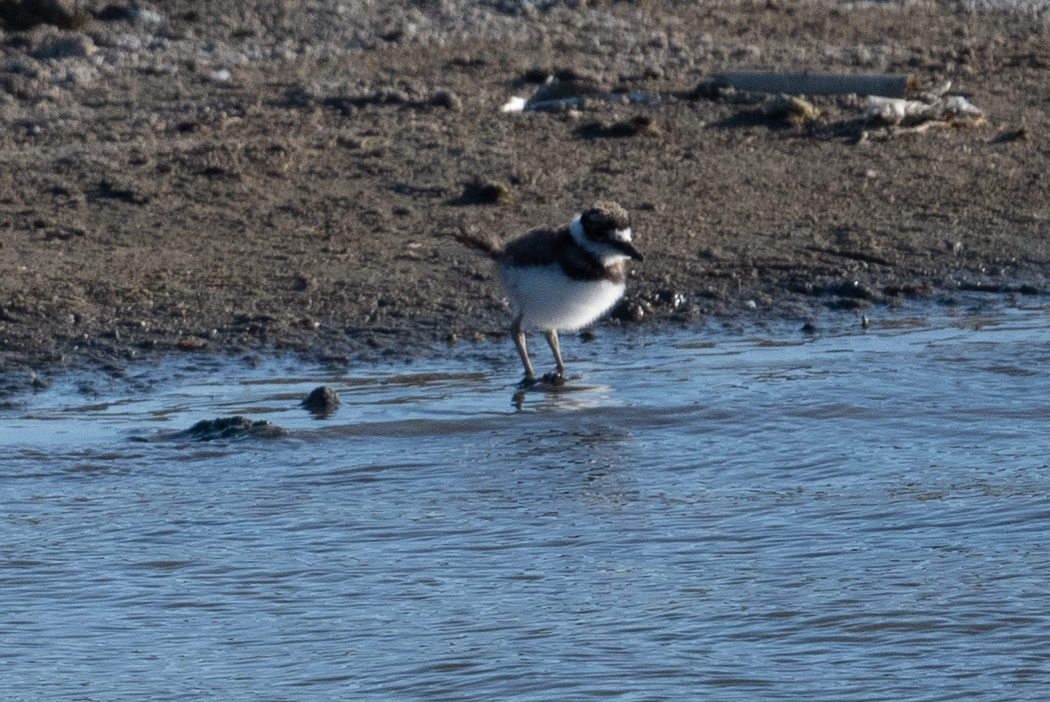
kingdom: Animalia
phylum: Chordata
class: Aves
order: Charadriiformes
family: Charadriidae
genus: Charadrius
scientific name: Charadrius vociferus
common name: Killdeer
